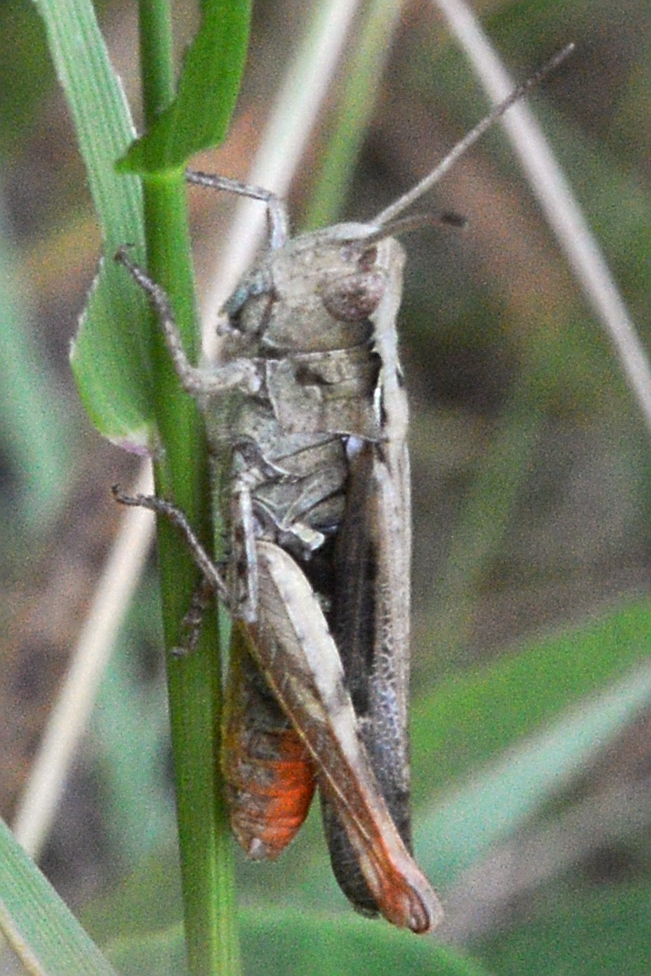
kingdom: Animalia
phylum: Arthropoda
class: Insecta
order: Orthoptera
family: Acrididae
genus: Chorthippus
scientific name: Chorthippus brunneus
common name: Field grasshopper
